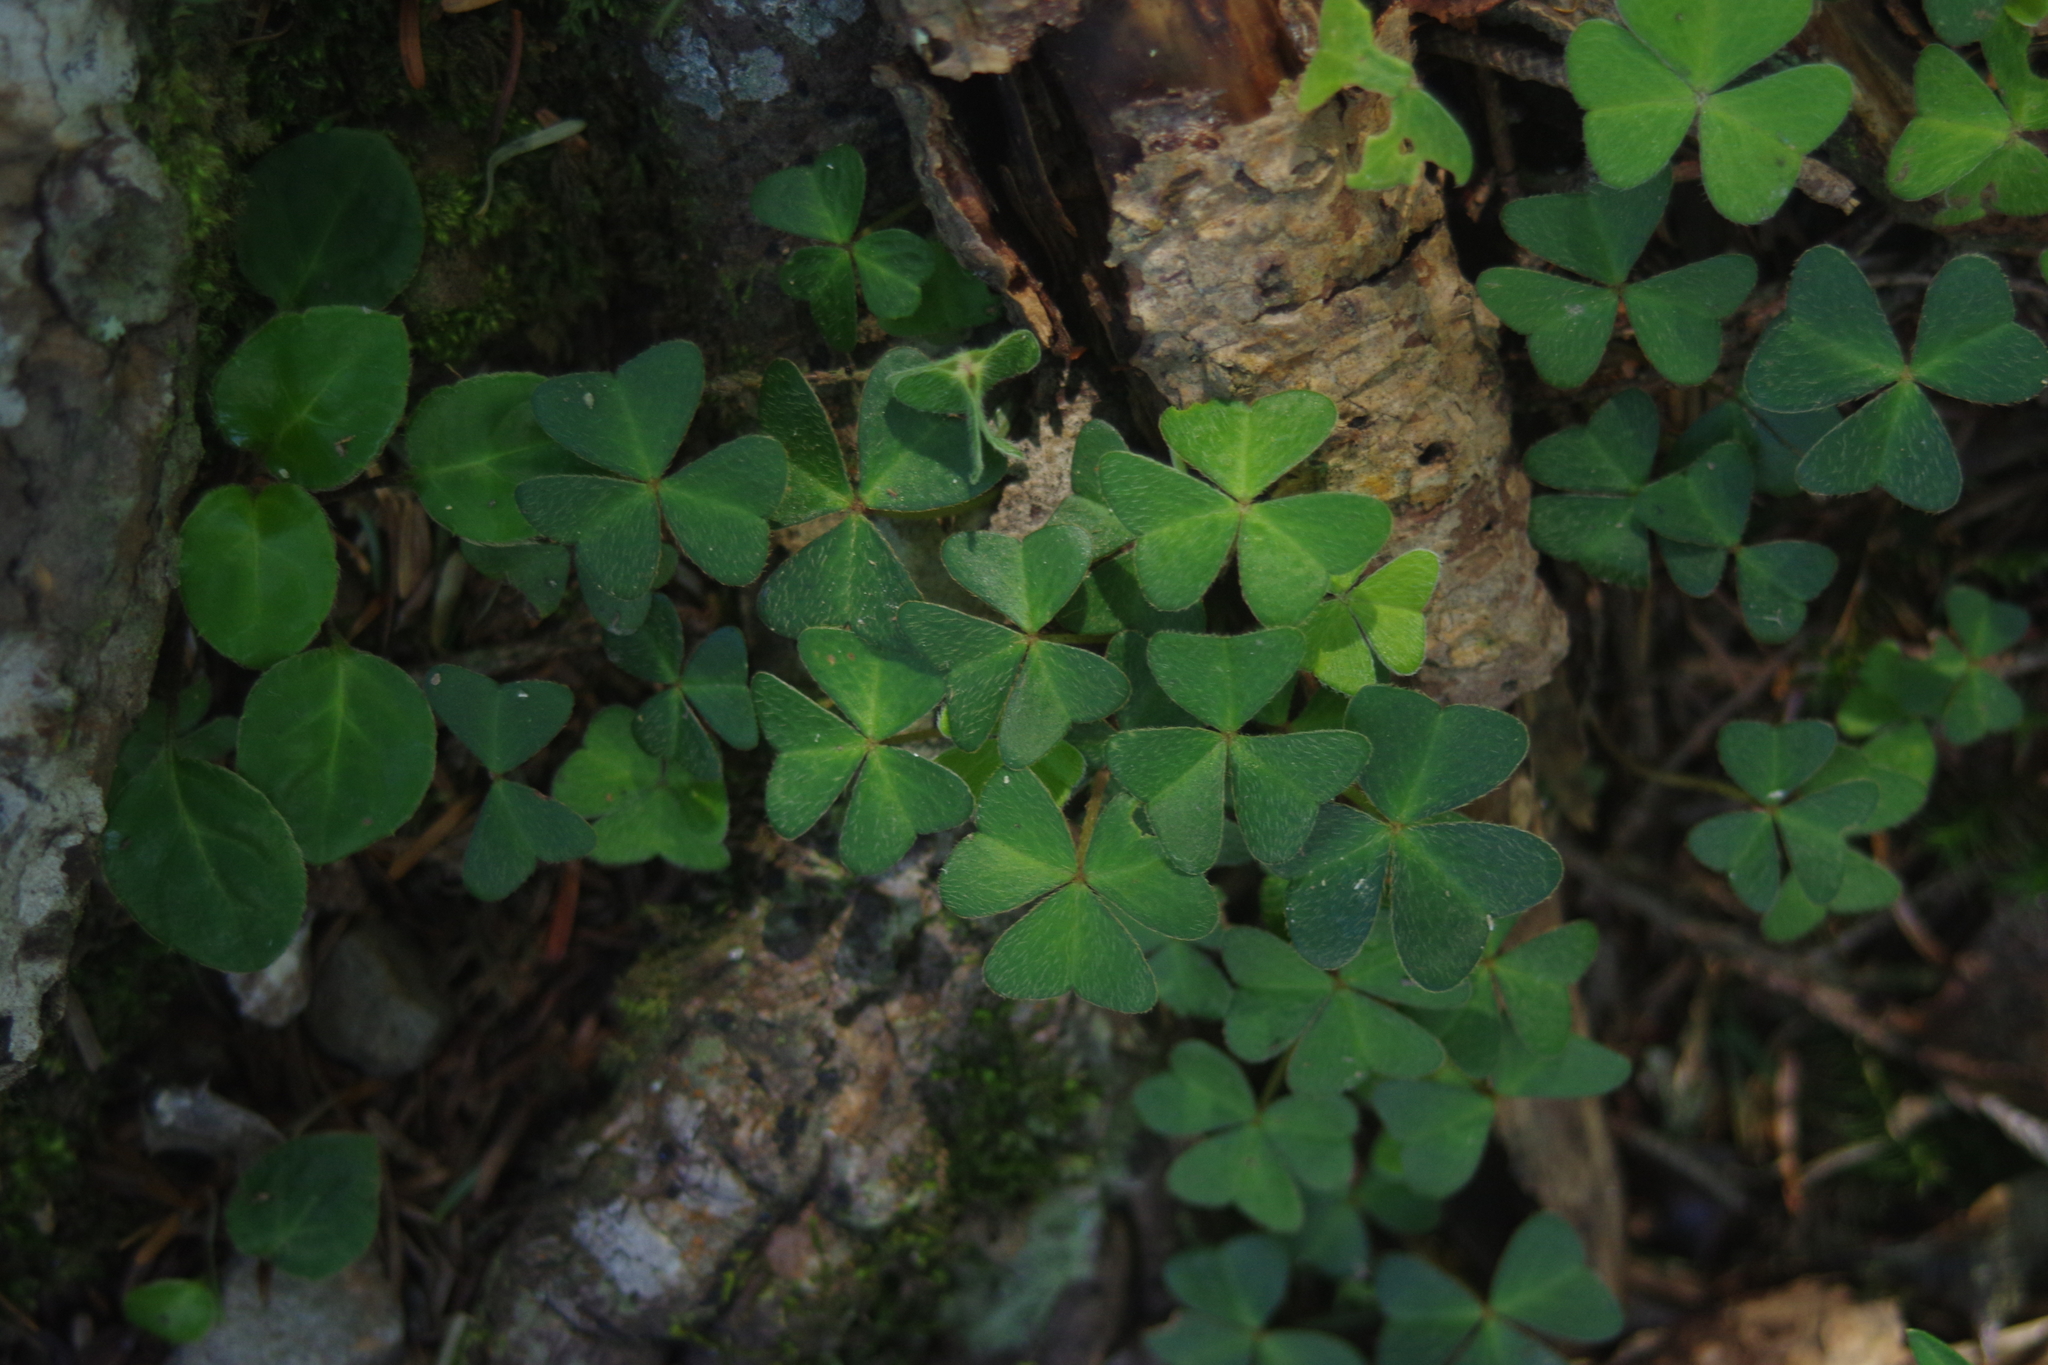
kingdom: Plantae
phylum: Tracheophyta
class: Magnoliopsida
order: Oxalidales
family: Oxalidaceae
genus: Oxalis
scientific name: Oxalis griffithii
